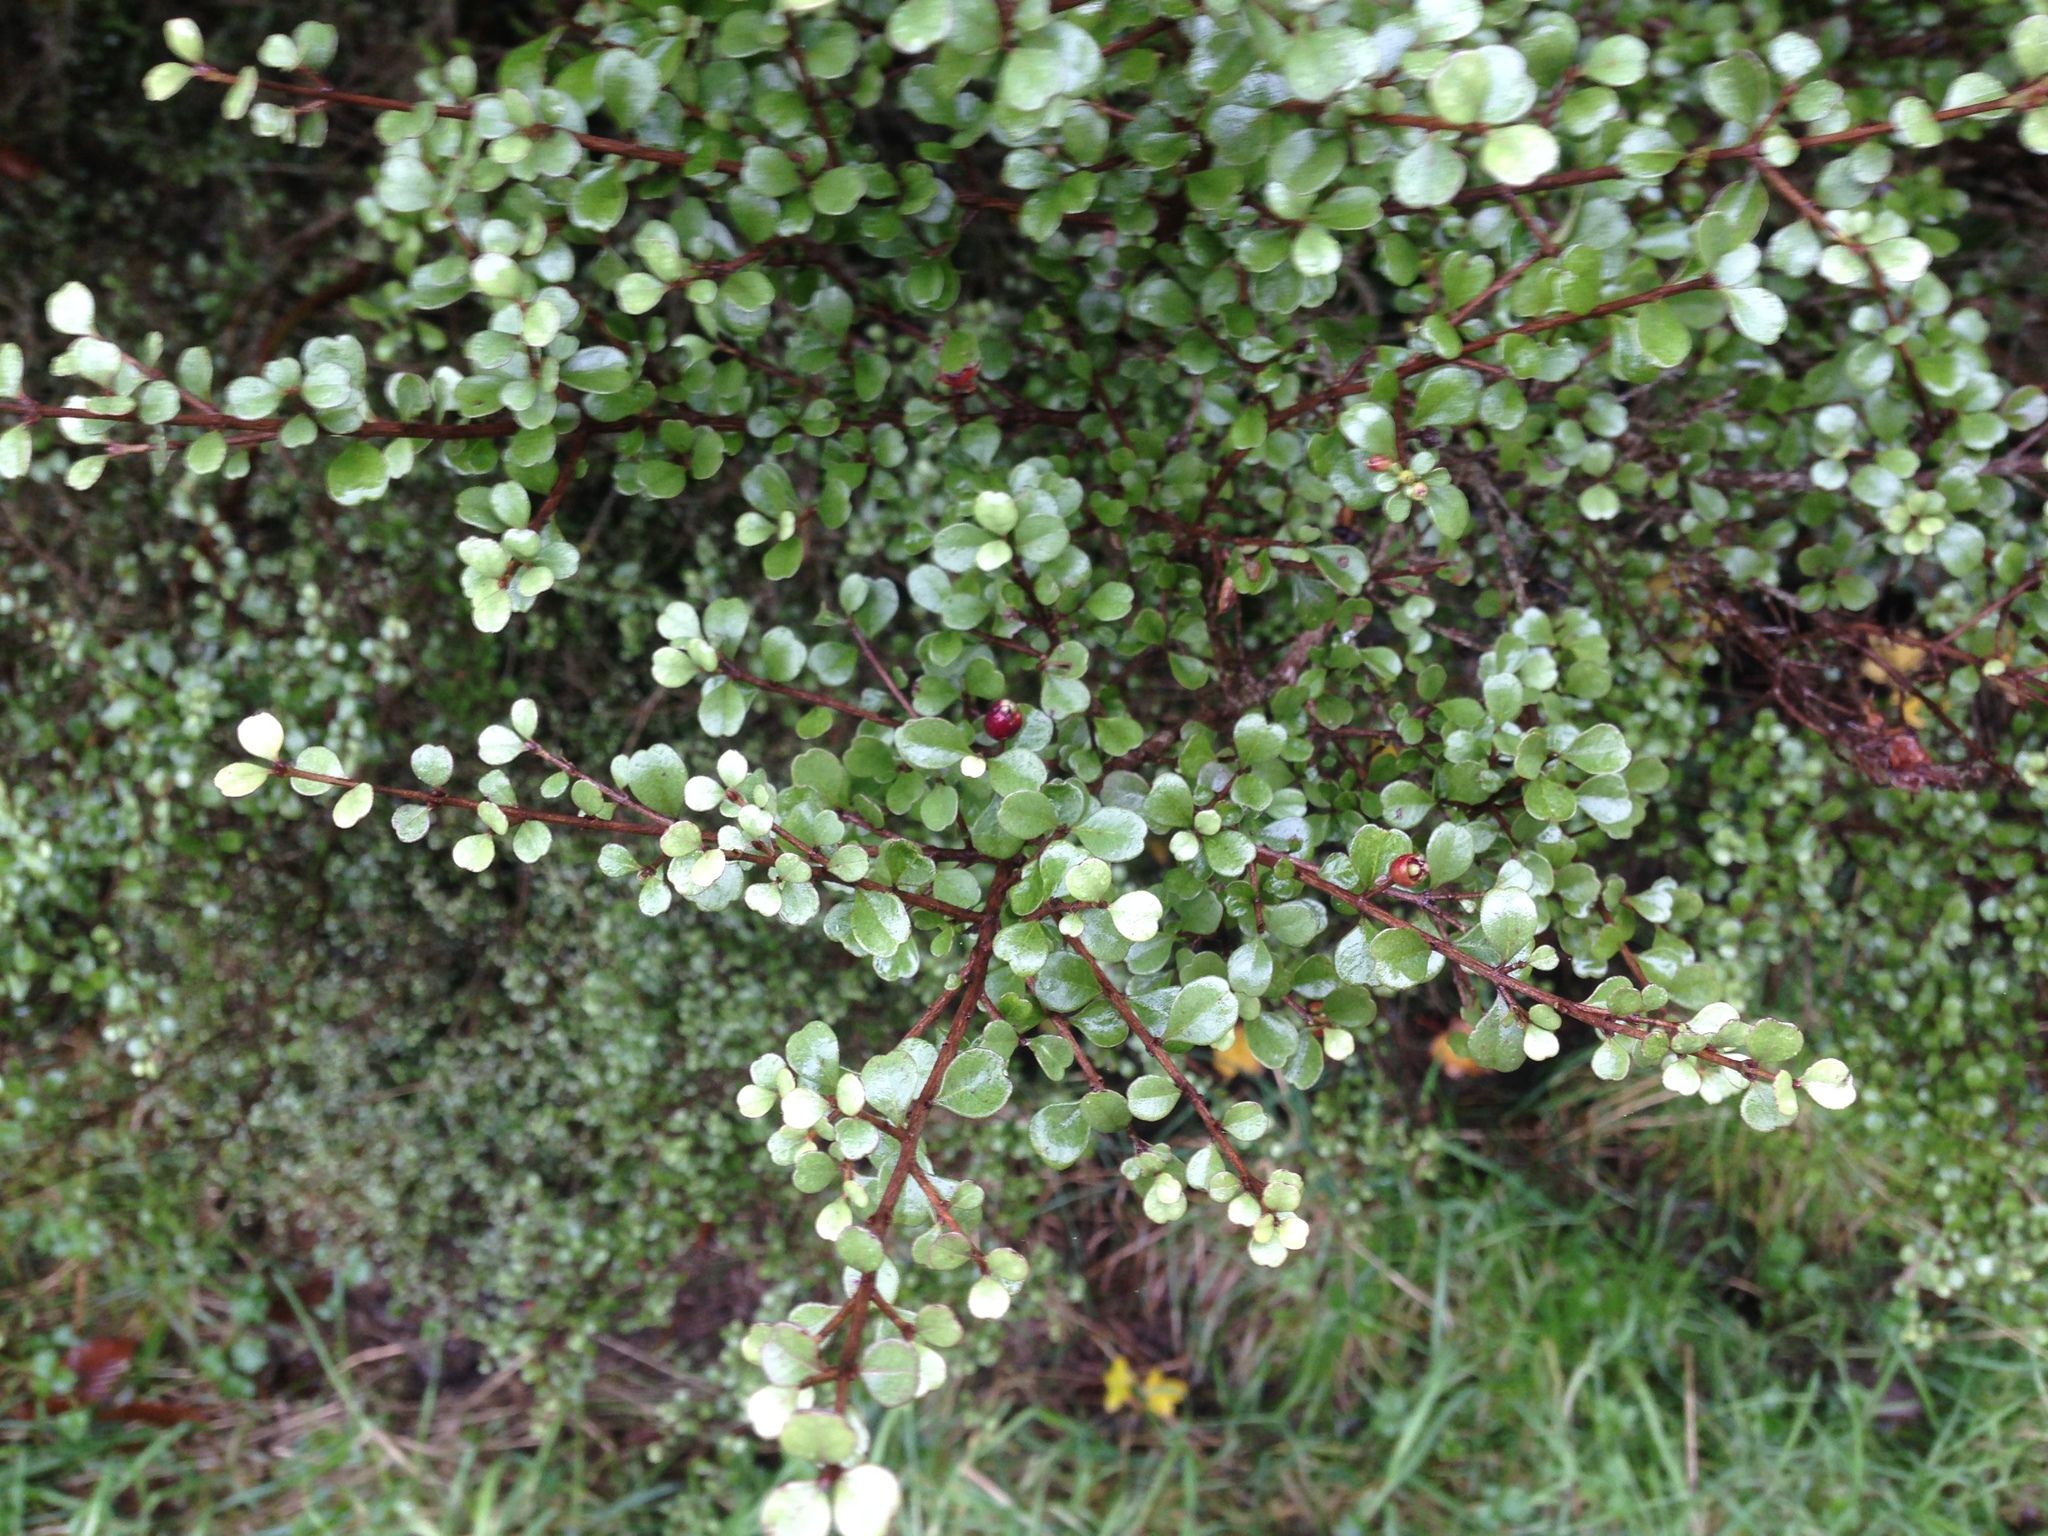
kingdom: Plantae
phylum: Tracheophyta
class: Magnoliopsida
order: Myrtales
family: Myrtaceae
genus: Lophomyrtus
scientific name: Lophomyrtus obcordata
